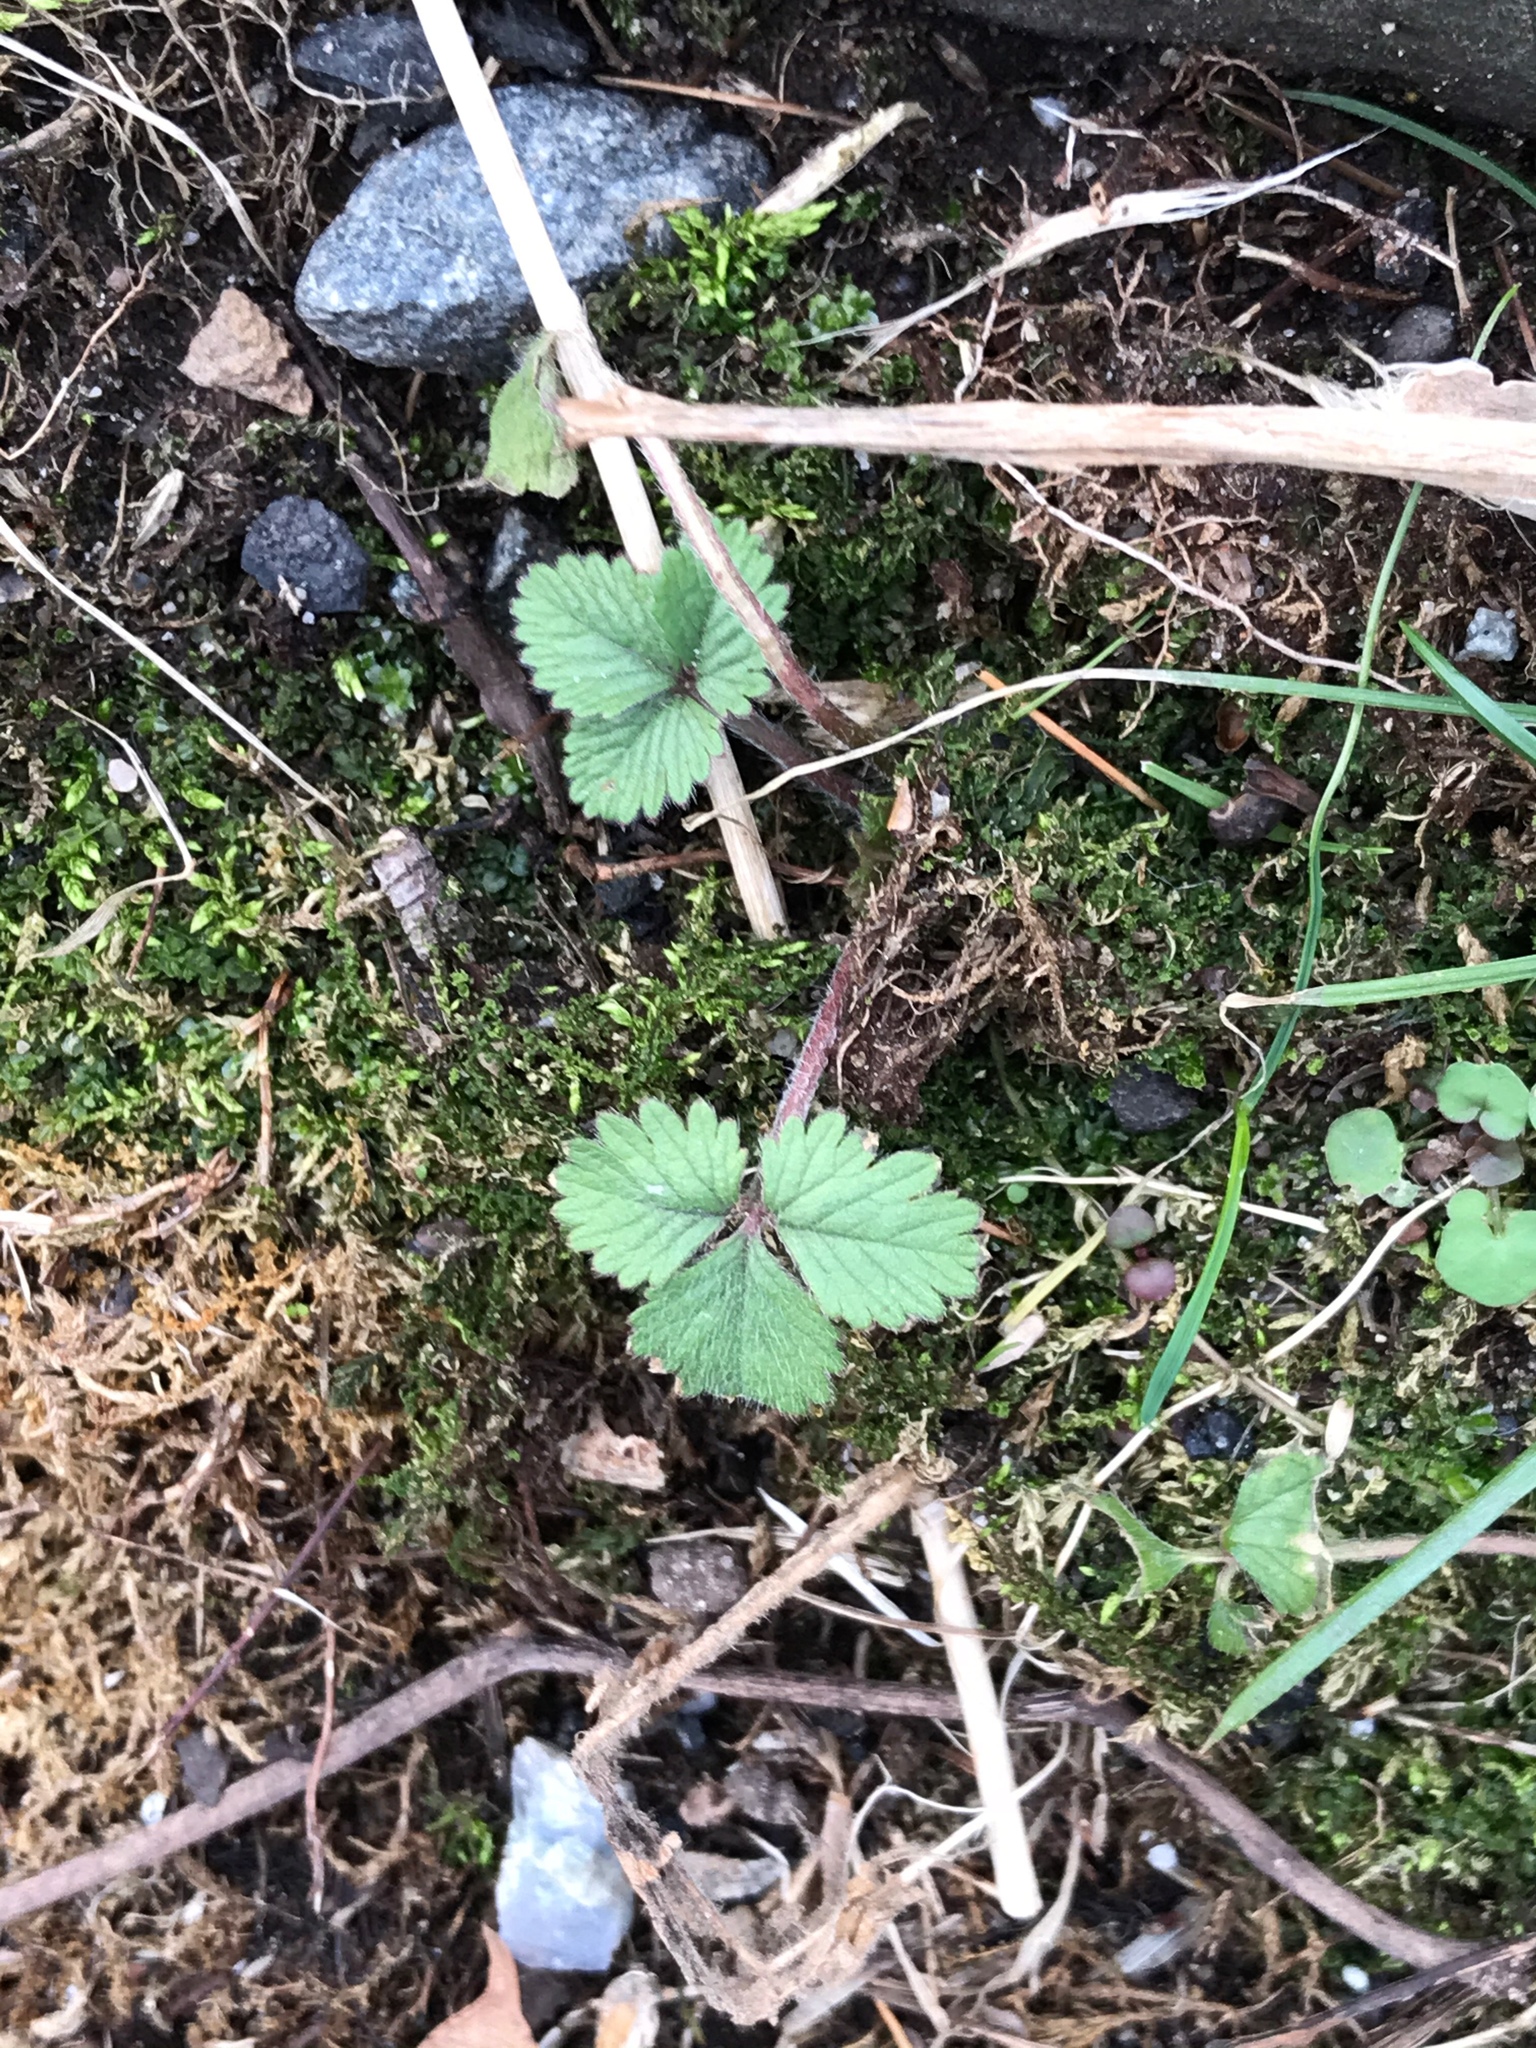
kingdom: Plantae
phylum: Tracheophyta
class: Magnoliopsida
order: Rosales
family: Rosaceae
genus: Potentilla
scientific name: Potentilla indica
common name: Yellow-flowered strawberry
